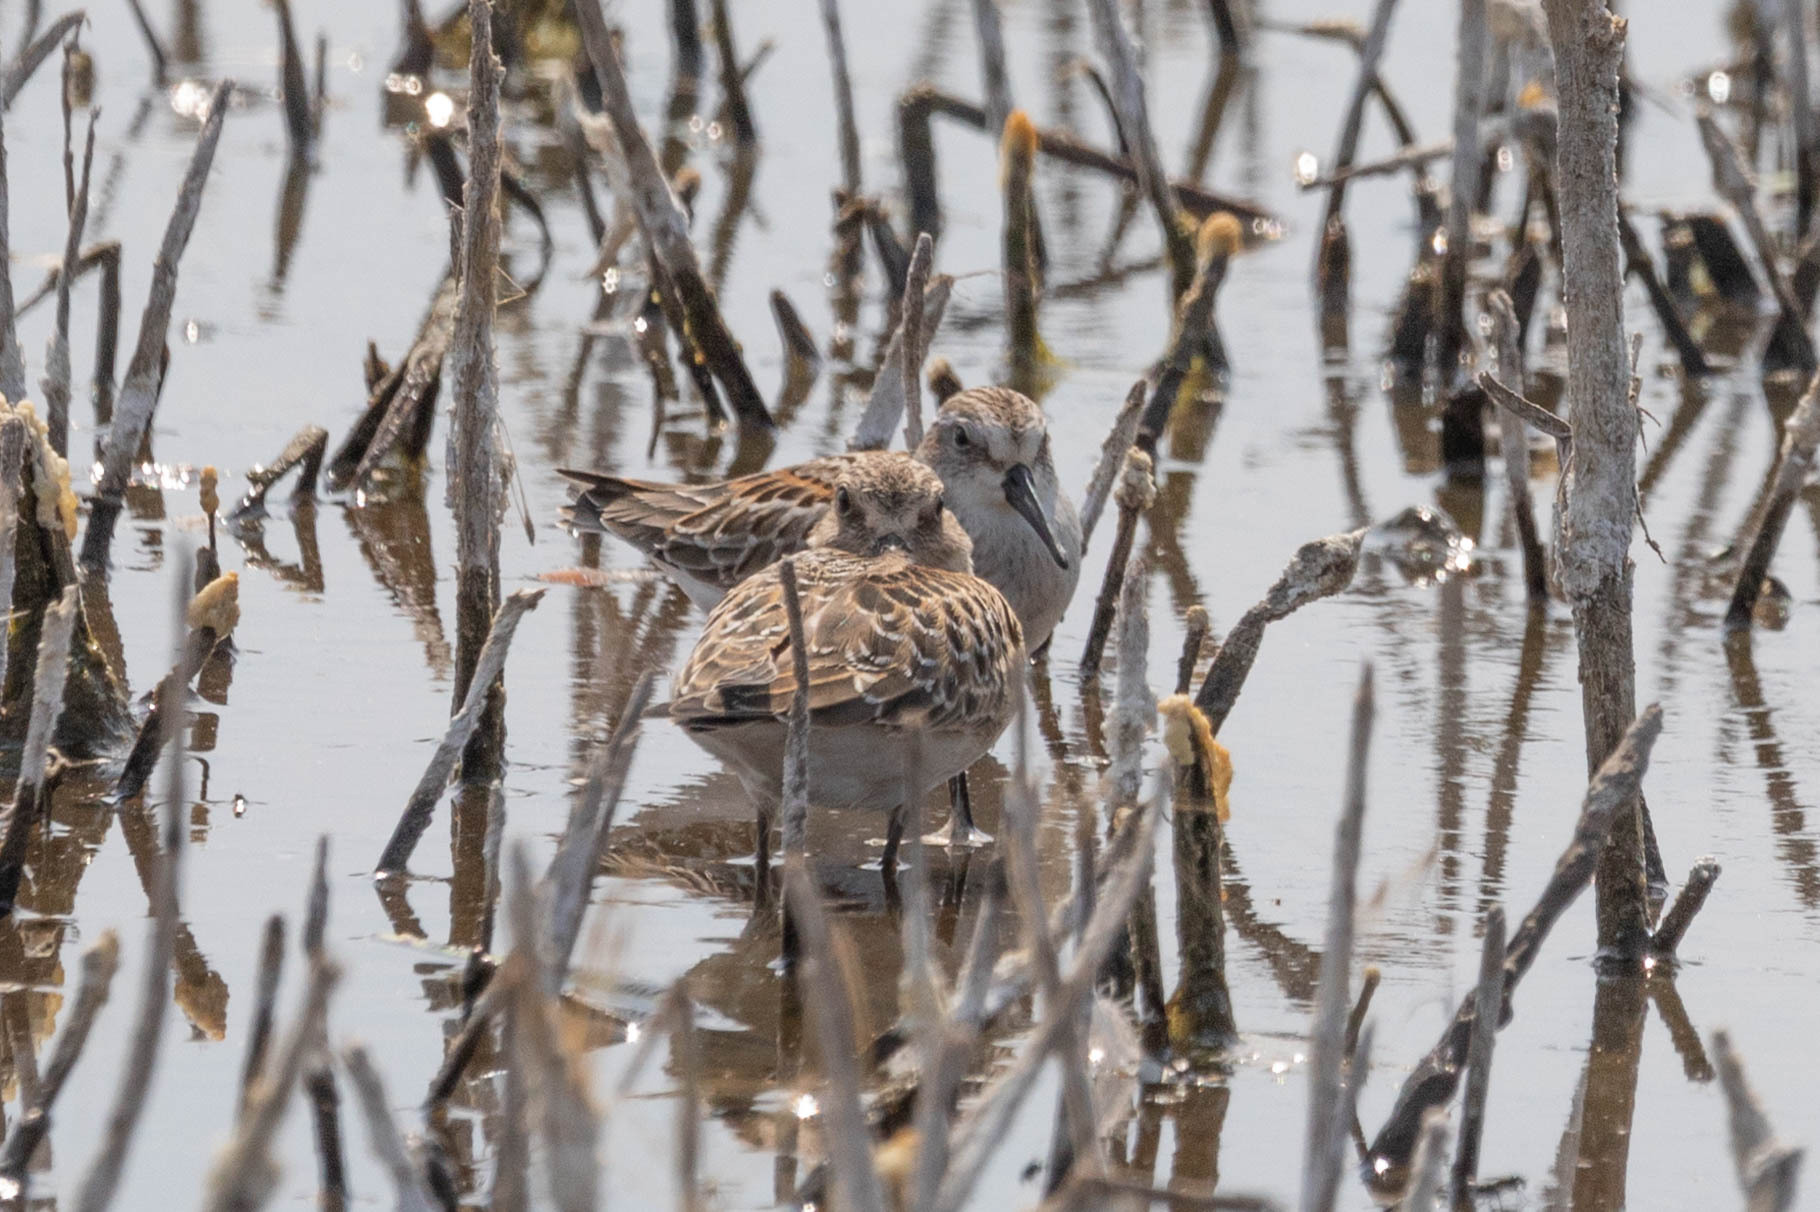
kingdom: Animalia
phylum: Chordata
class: Aves
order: Charadriiformes
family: Scolopacidae
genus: Calidris
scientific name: Calidris mauri
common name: Western sandpiper
